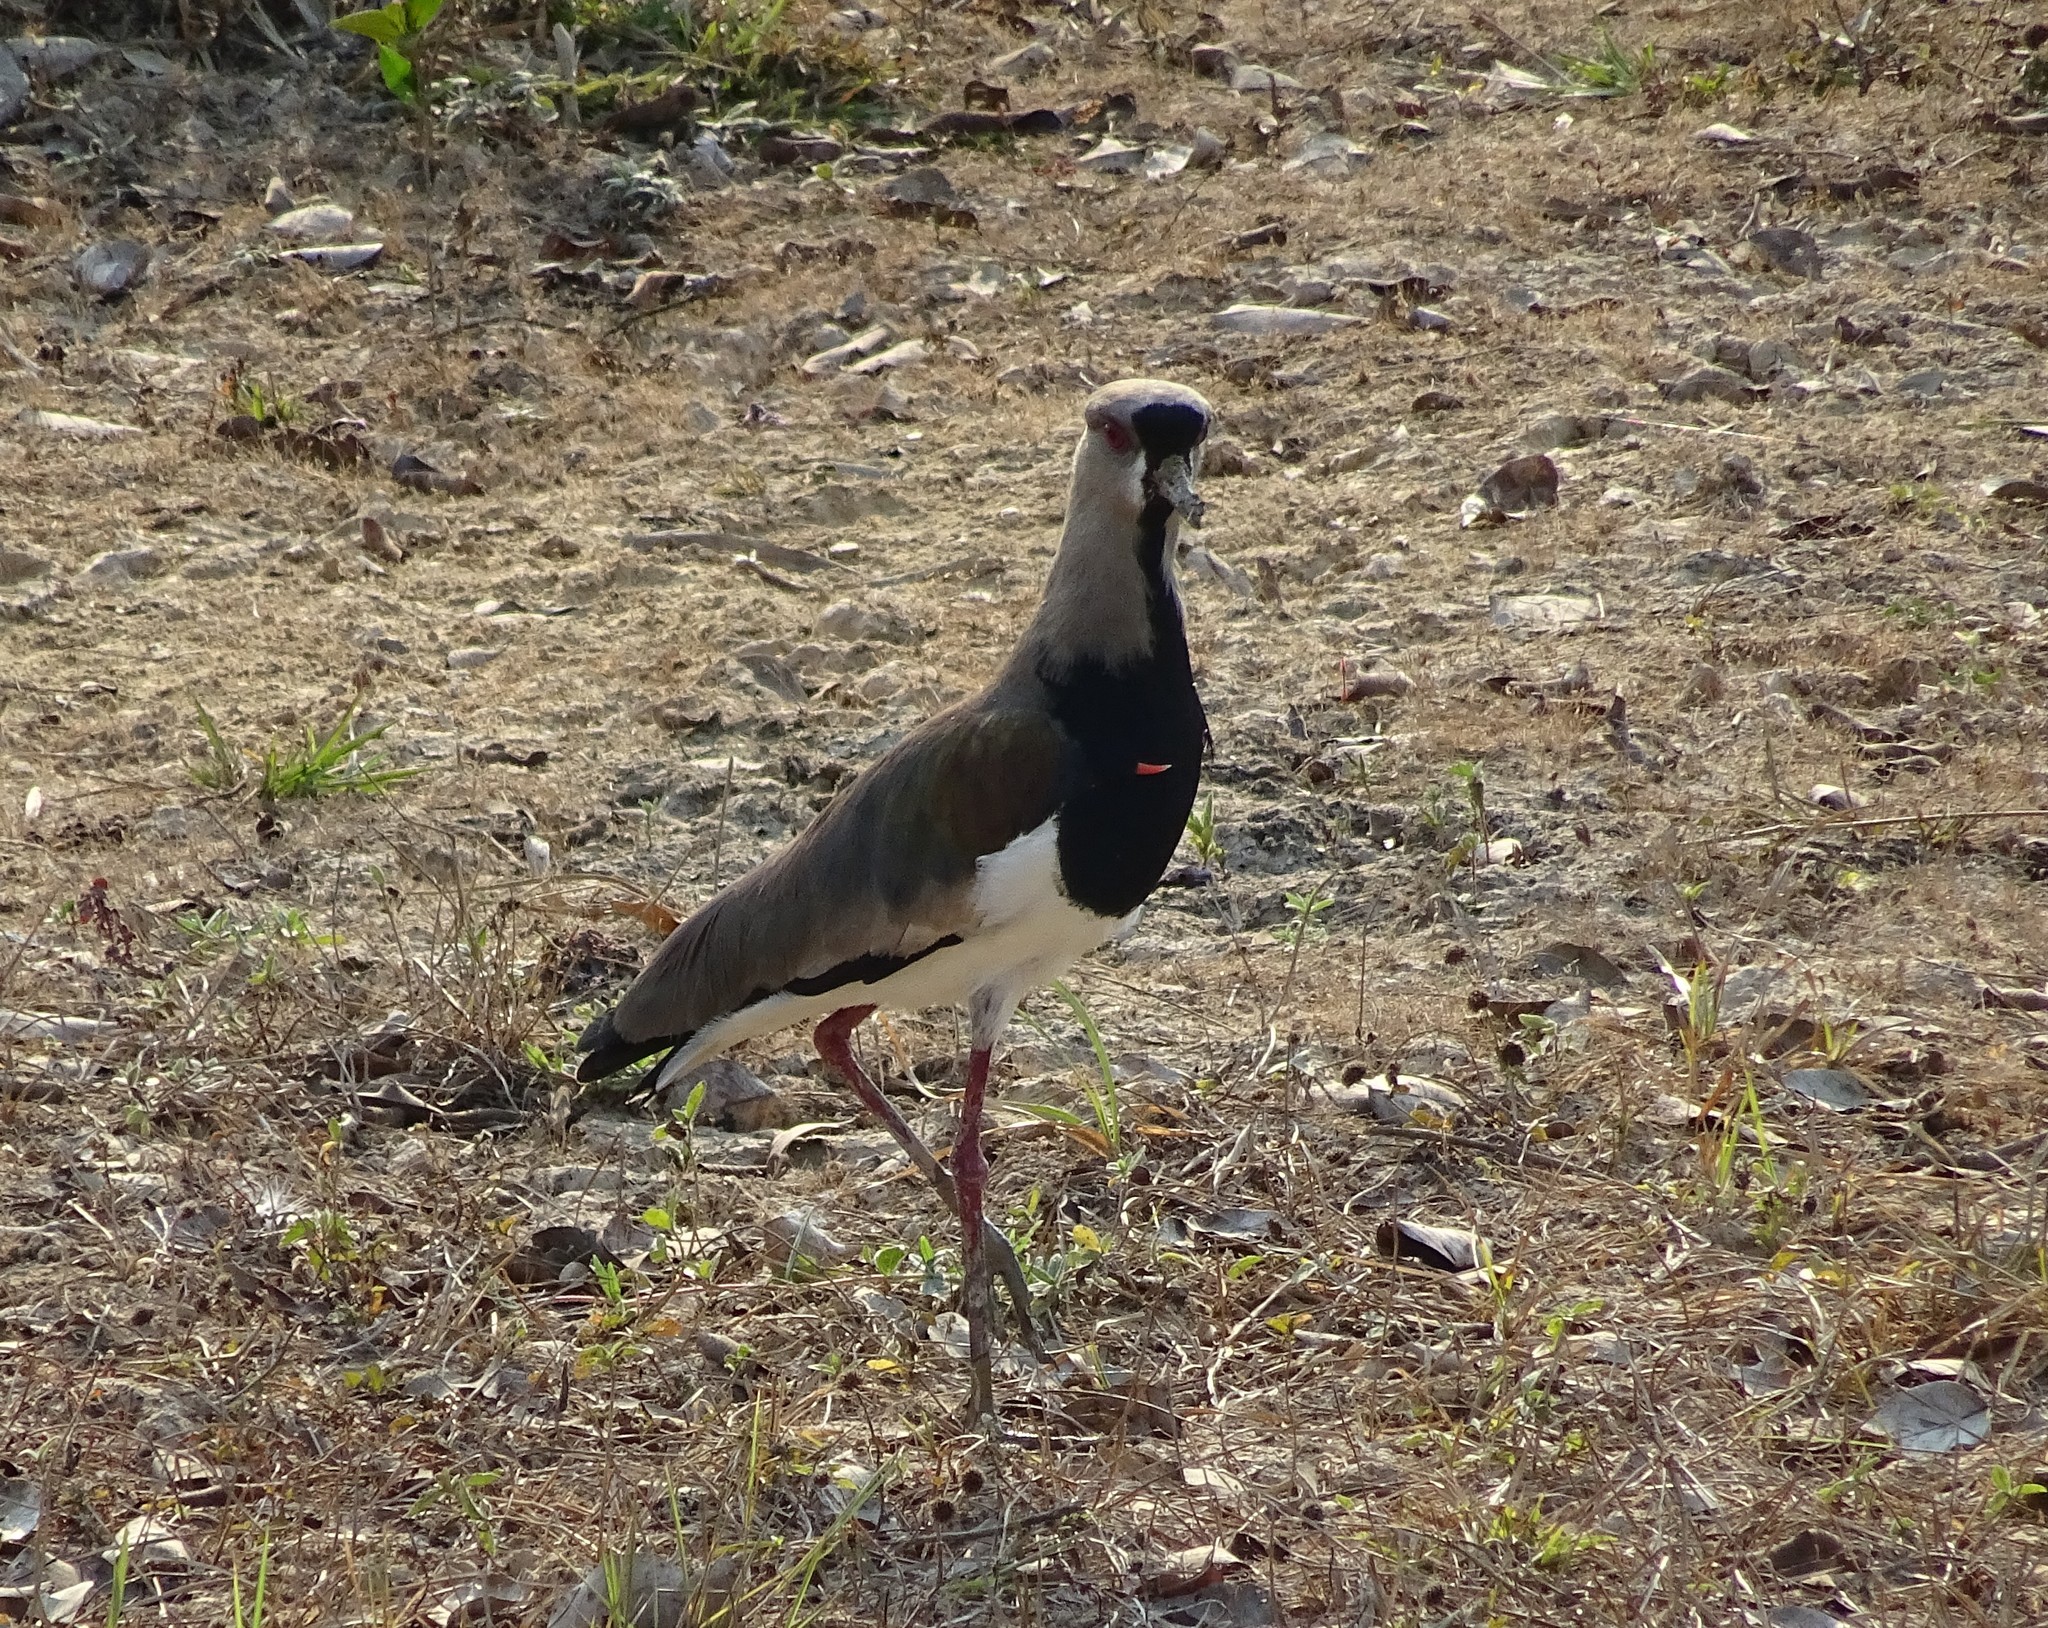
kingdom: Animalia
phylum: Chordata
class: Aves
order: Charadriiformes
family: Charadriidae
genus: Vanellus
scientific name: Vanellus chilensis
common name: Southern lapwing
